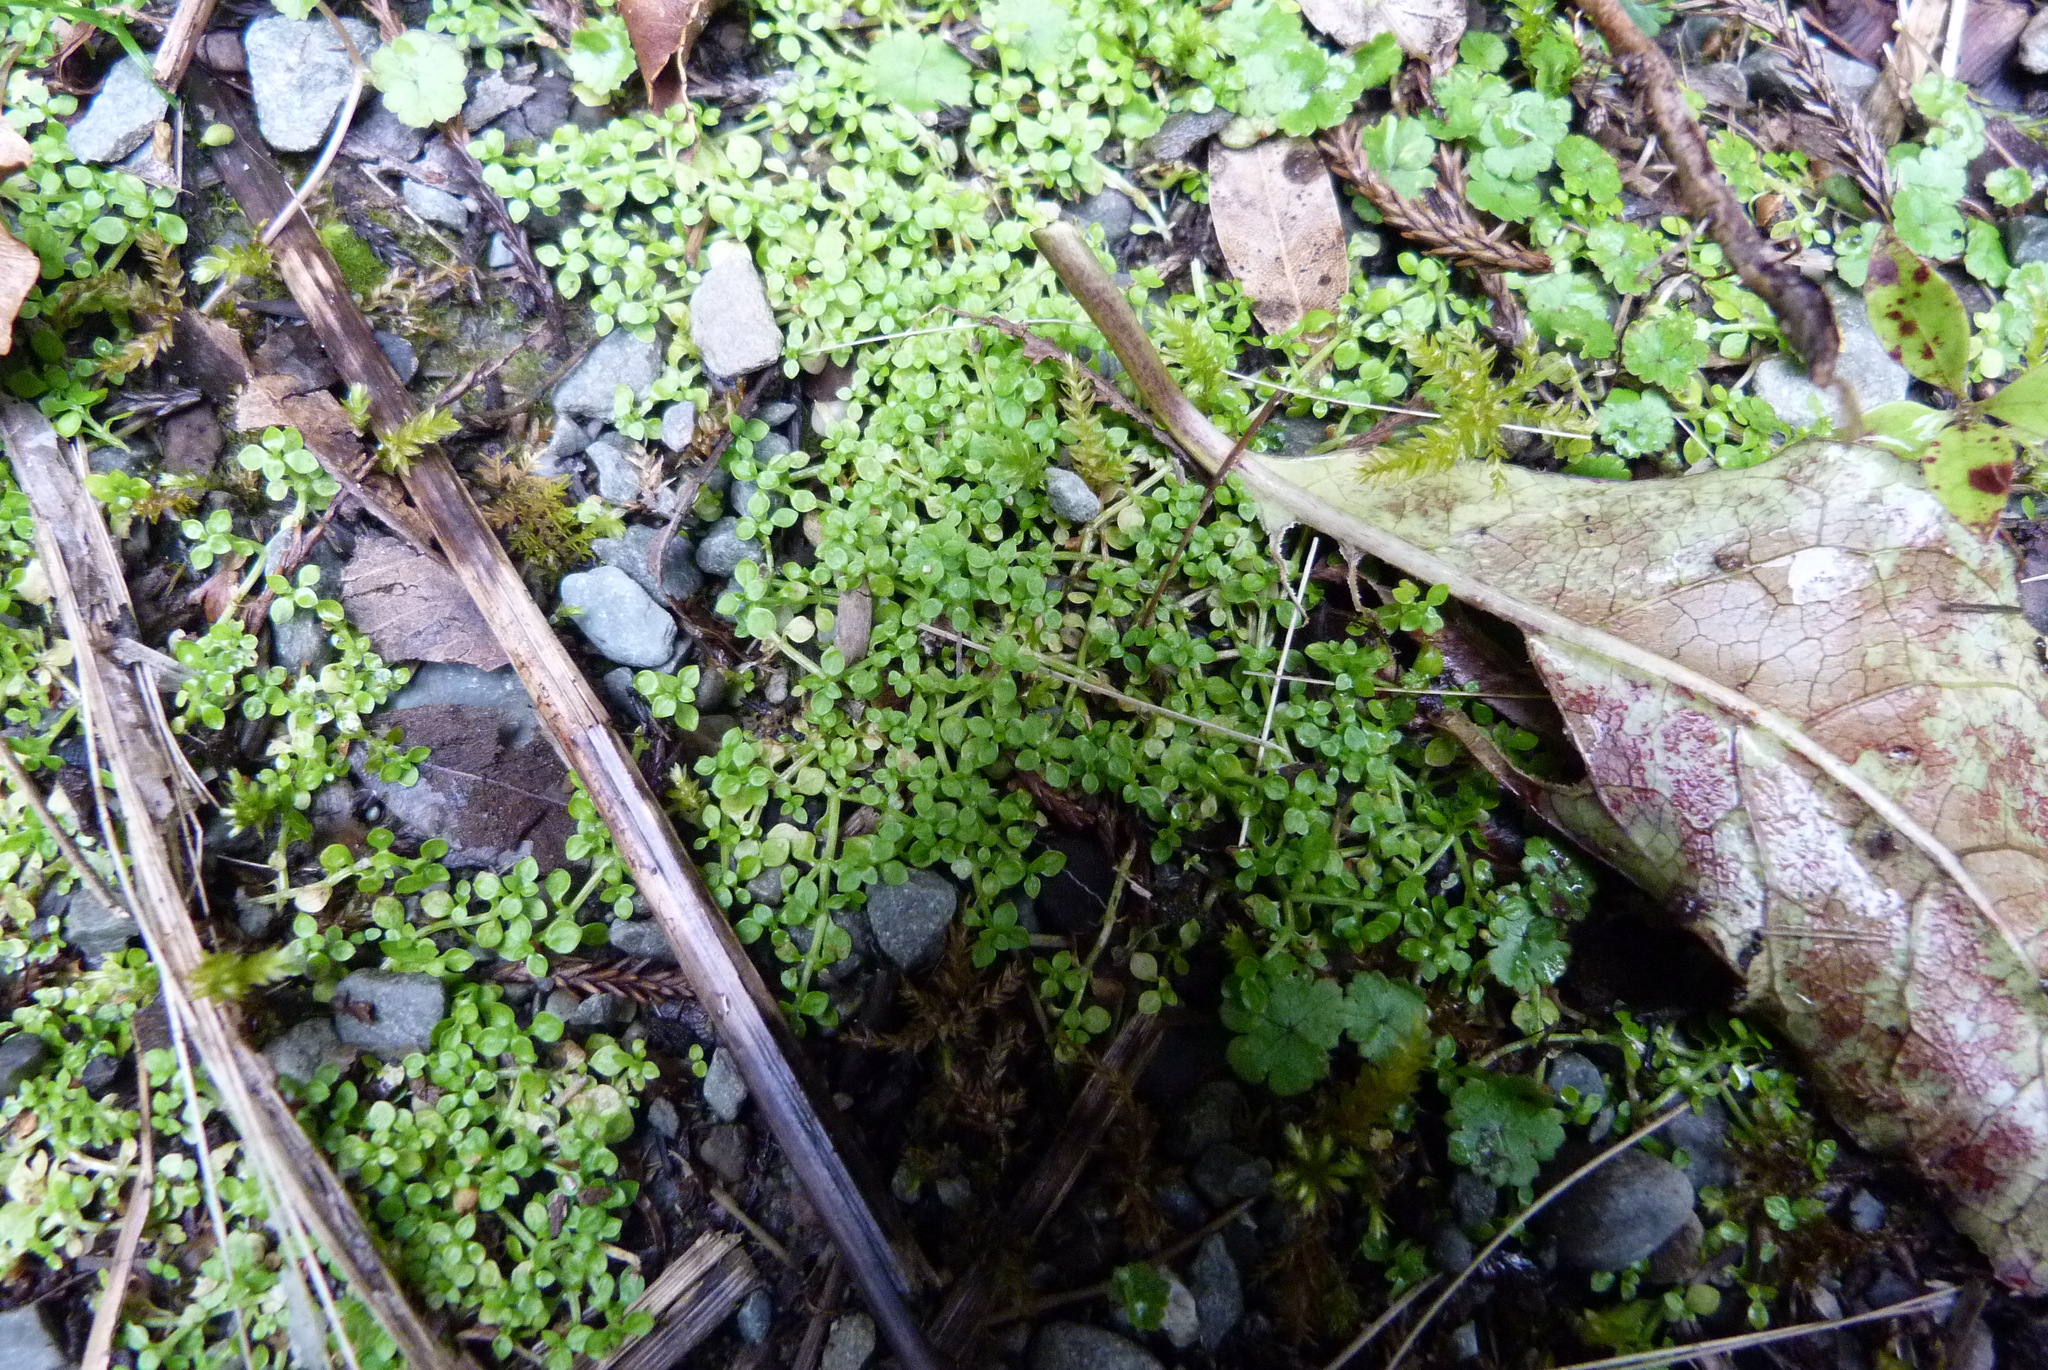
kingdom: Plantae
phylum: Tracheophyta
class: Magnoliopsida
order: Lamiales
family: Plantaginaceae
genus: Callitriche
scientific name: Callitriche muelleri
